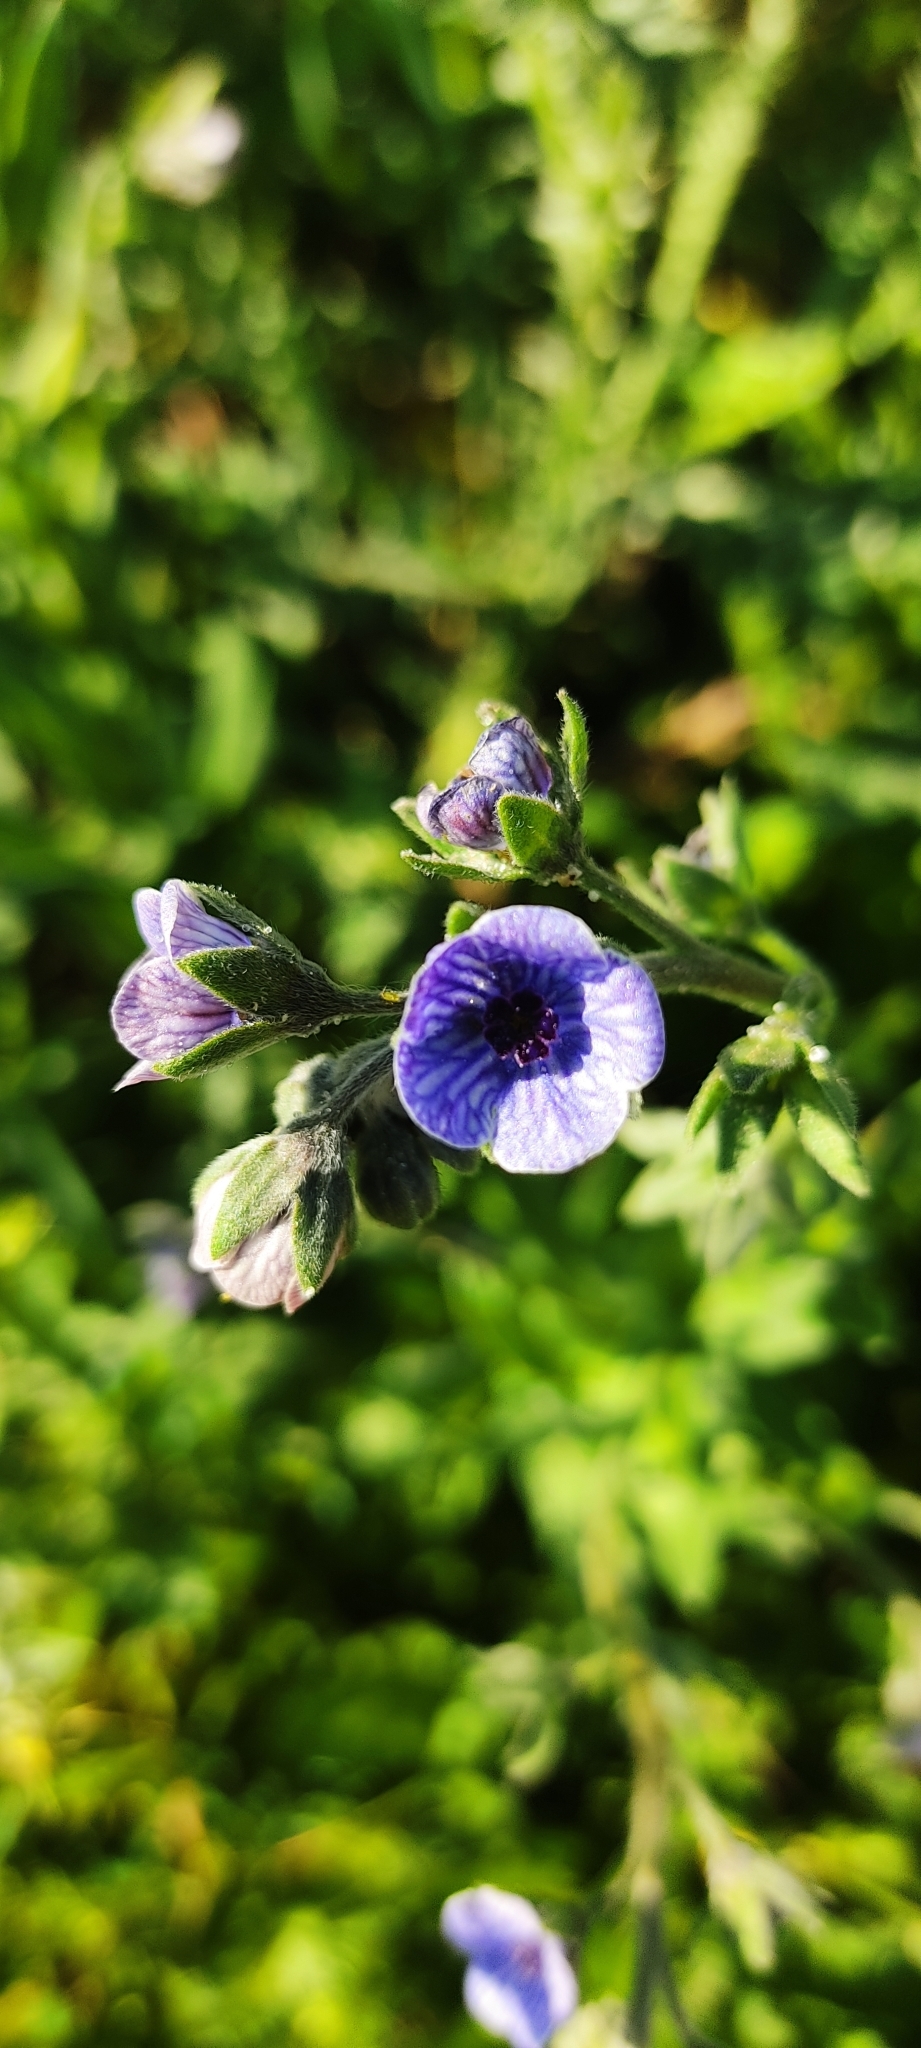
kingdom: Plantae
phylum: Tracheophyta
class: Magnoliopsida
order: Boraginales
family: Boraginaceae
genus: Cynoglossum
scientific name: Cynoglossum creticum
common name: Blue hound's tongue
